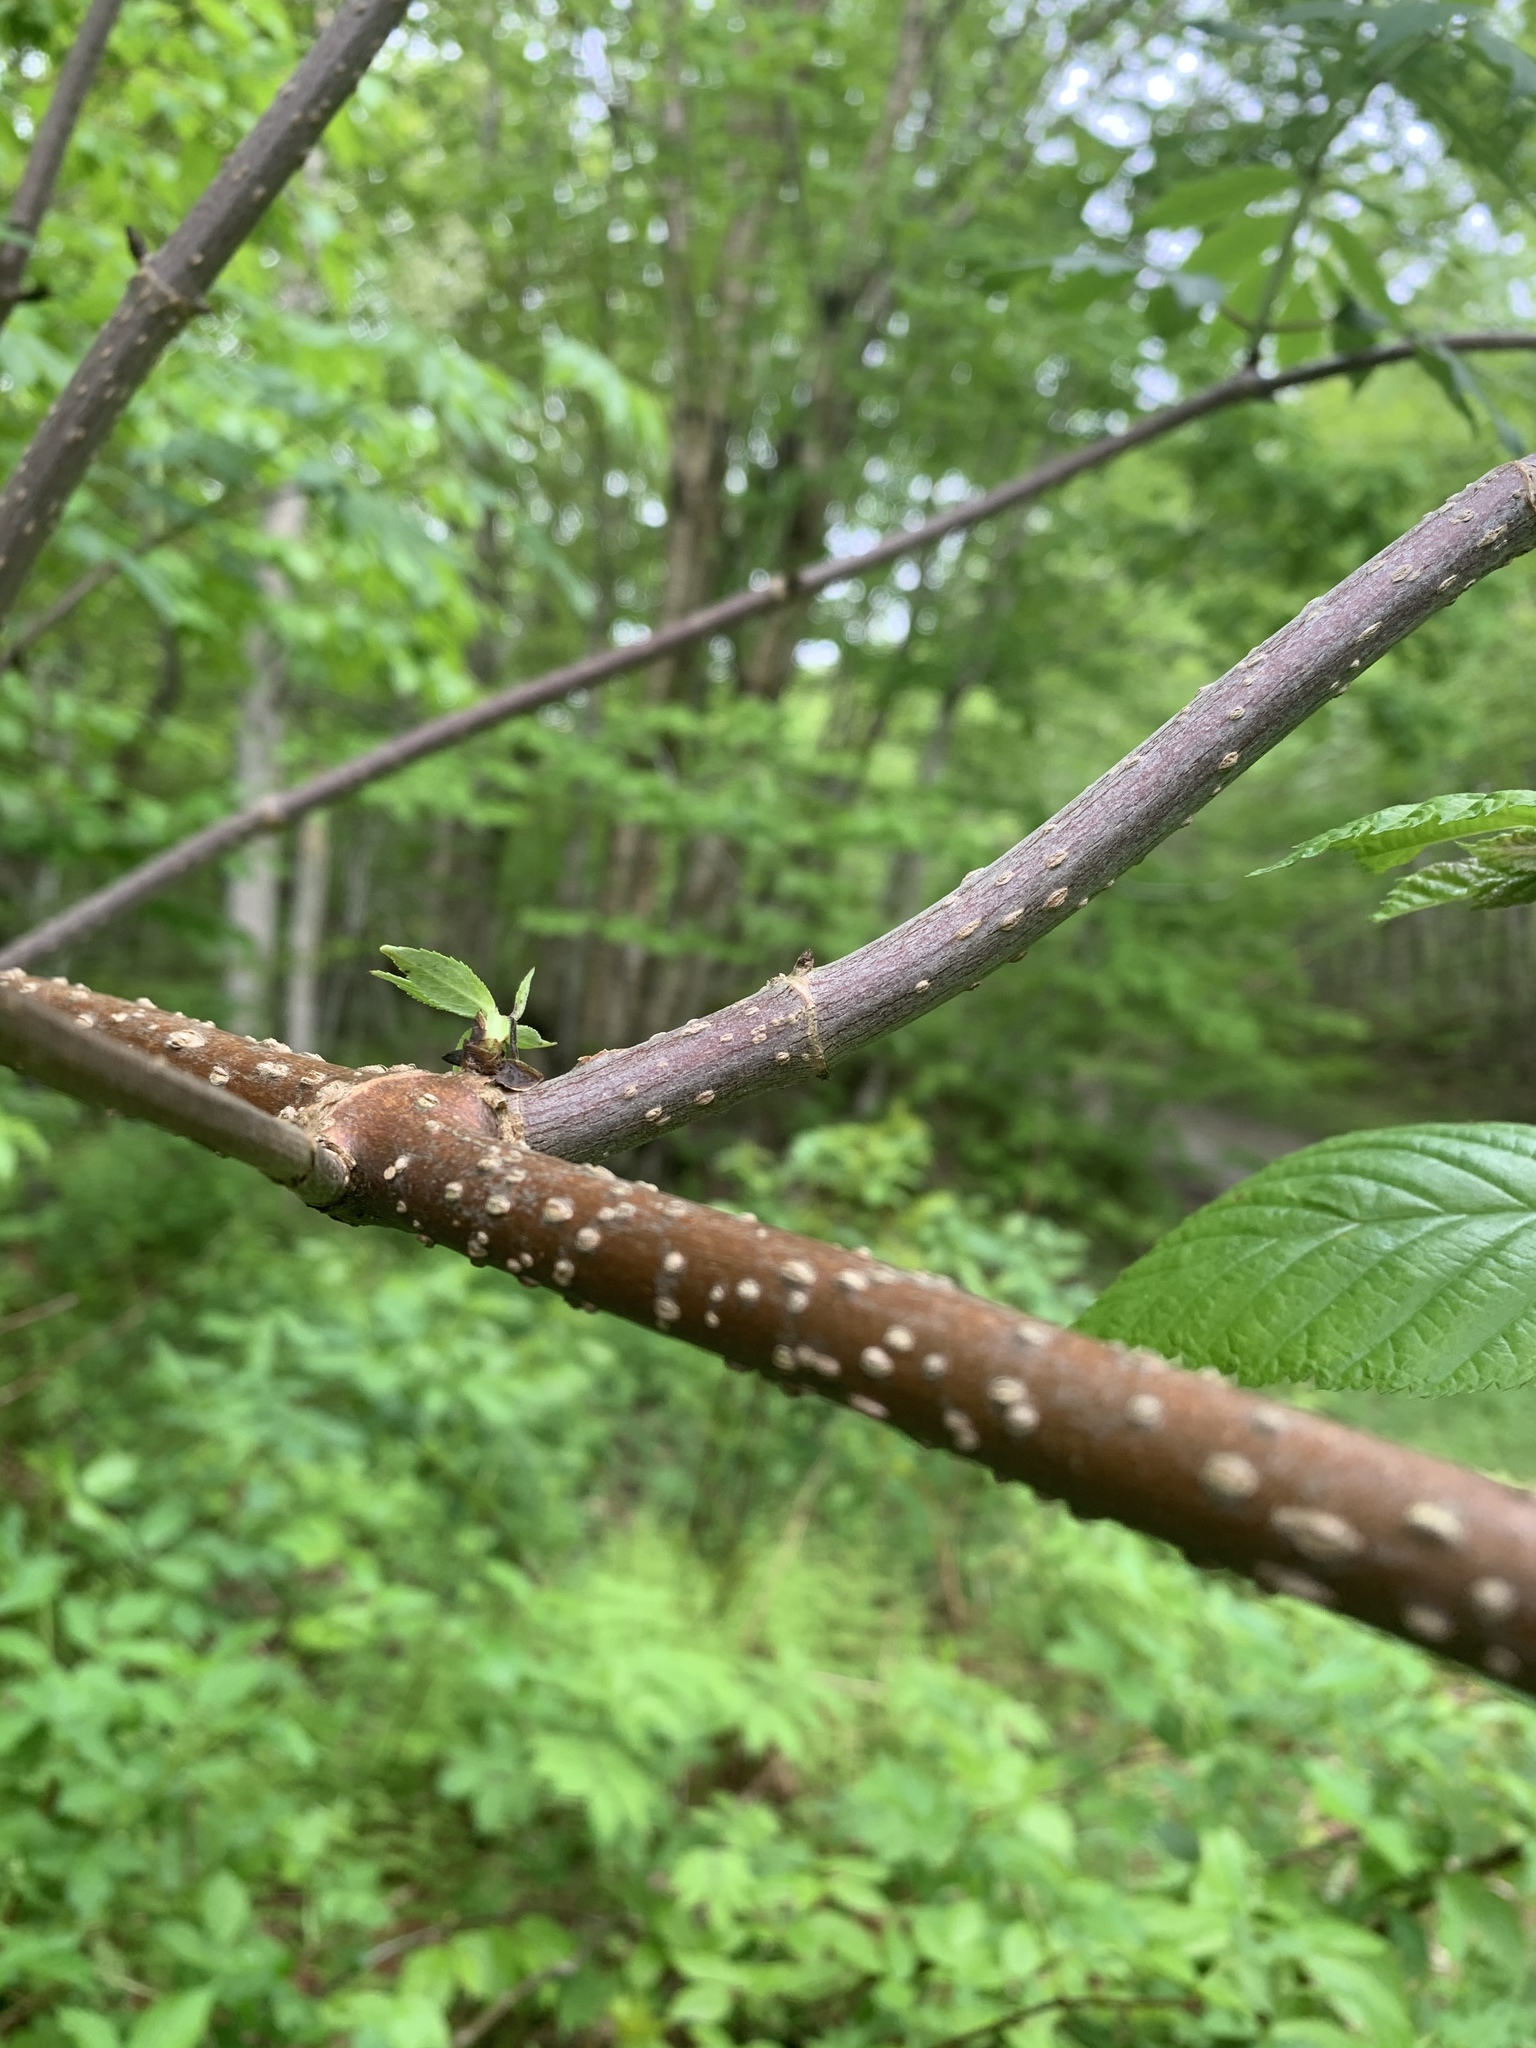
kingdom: Plantae
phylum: Tracheophyta
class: Magnoliopsida
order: Dipsacales
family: Viburnaceae
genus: Sambucus
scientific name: Sambucus racemosa
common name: Red-berried elder
